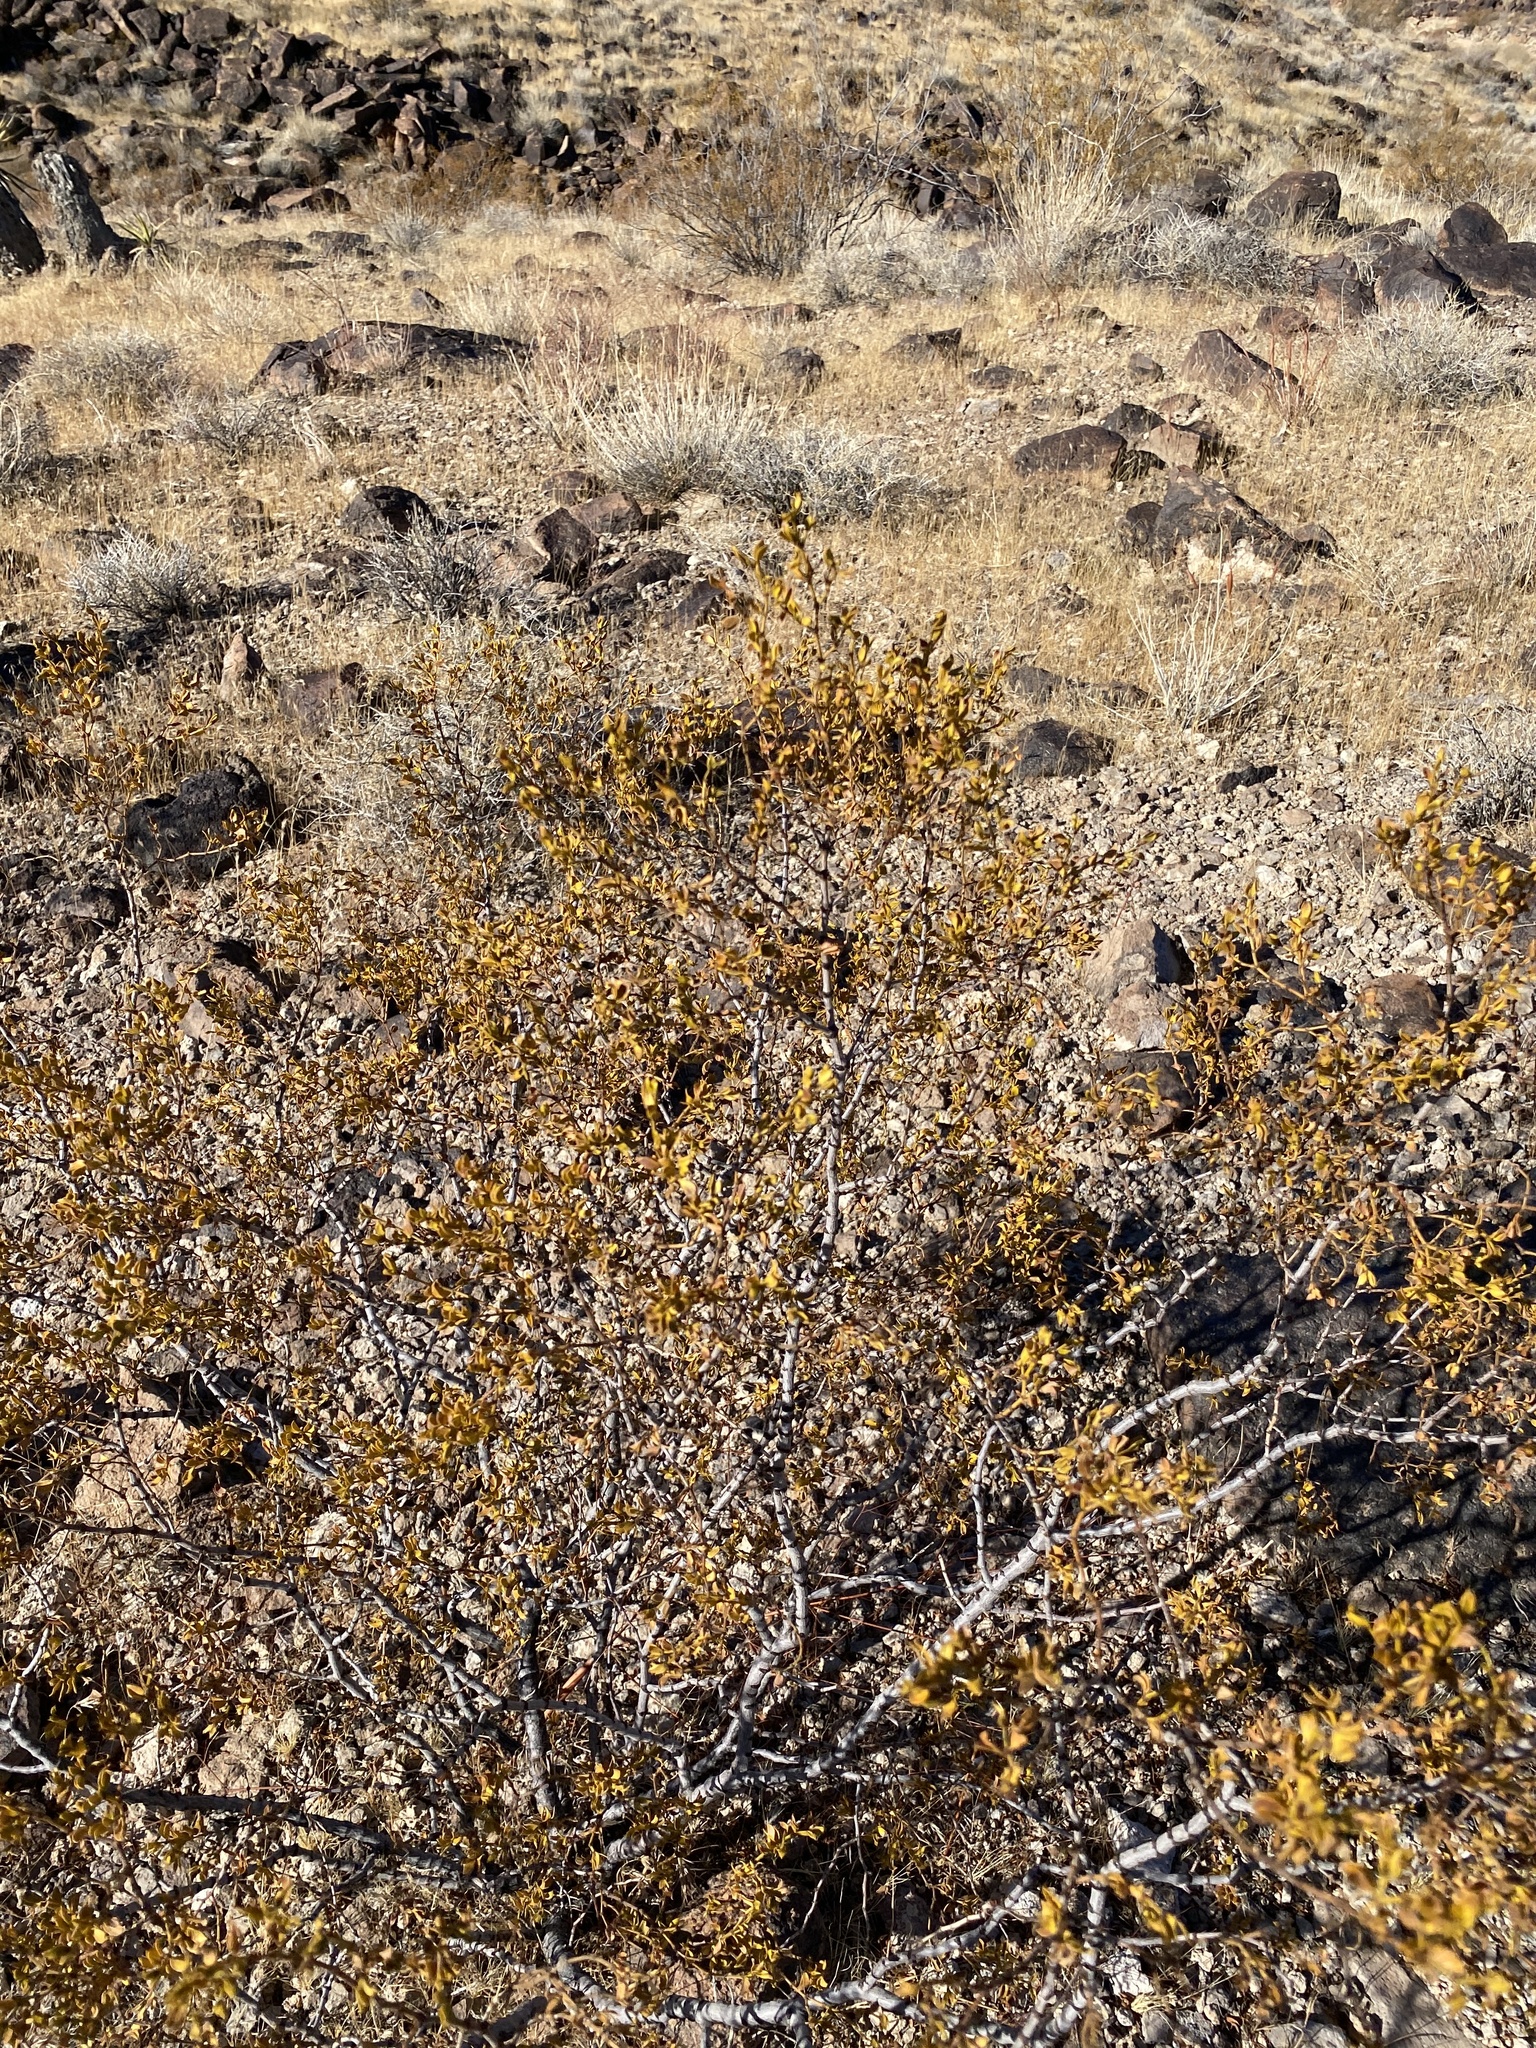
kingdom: Plantae
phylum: Tracheophyta
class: Magnoliopsida
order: Zygophyllales
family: Zygophyllaceae
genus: Larrea
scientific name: Larrea tridentata
